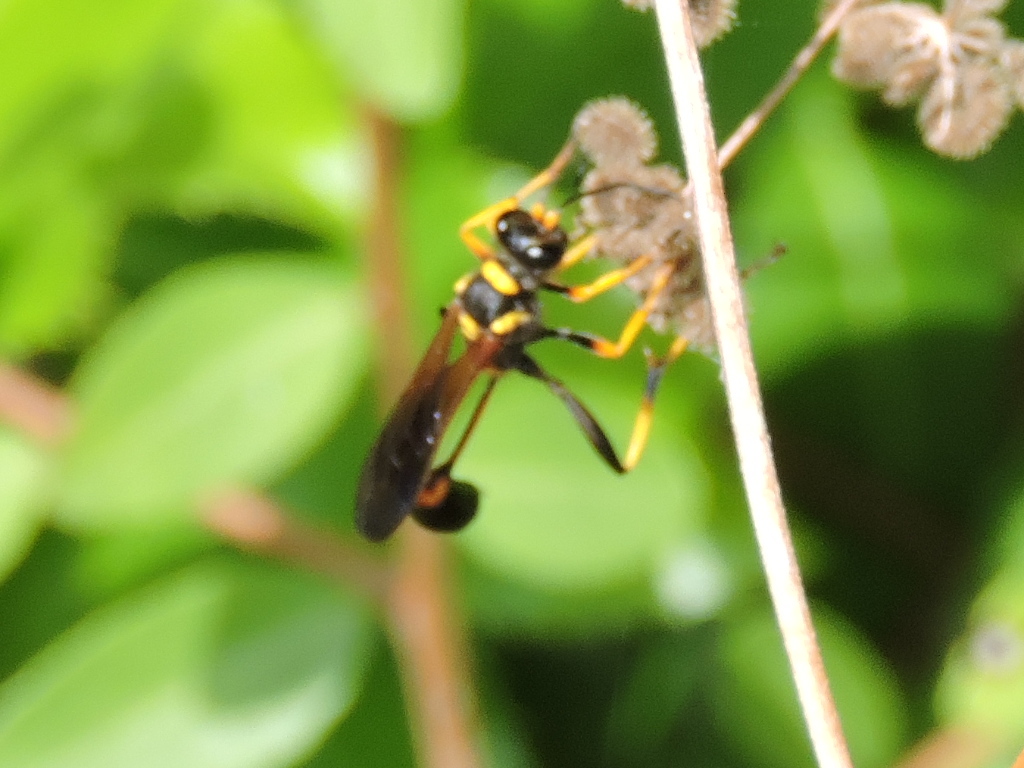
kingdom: Animalia
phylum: Arthropoda
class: Insecta
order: Hymenoptera
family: Sphecidae
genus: Sceliphron
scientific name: Sceliphron caementarium
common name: Mud dauber
